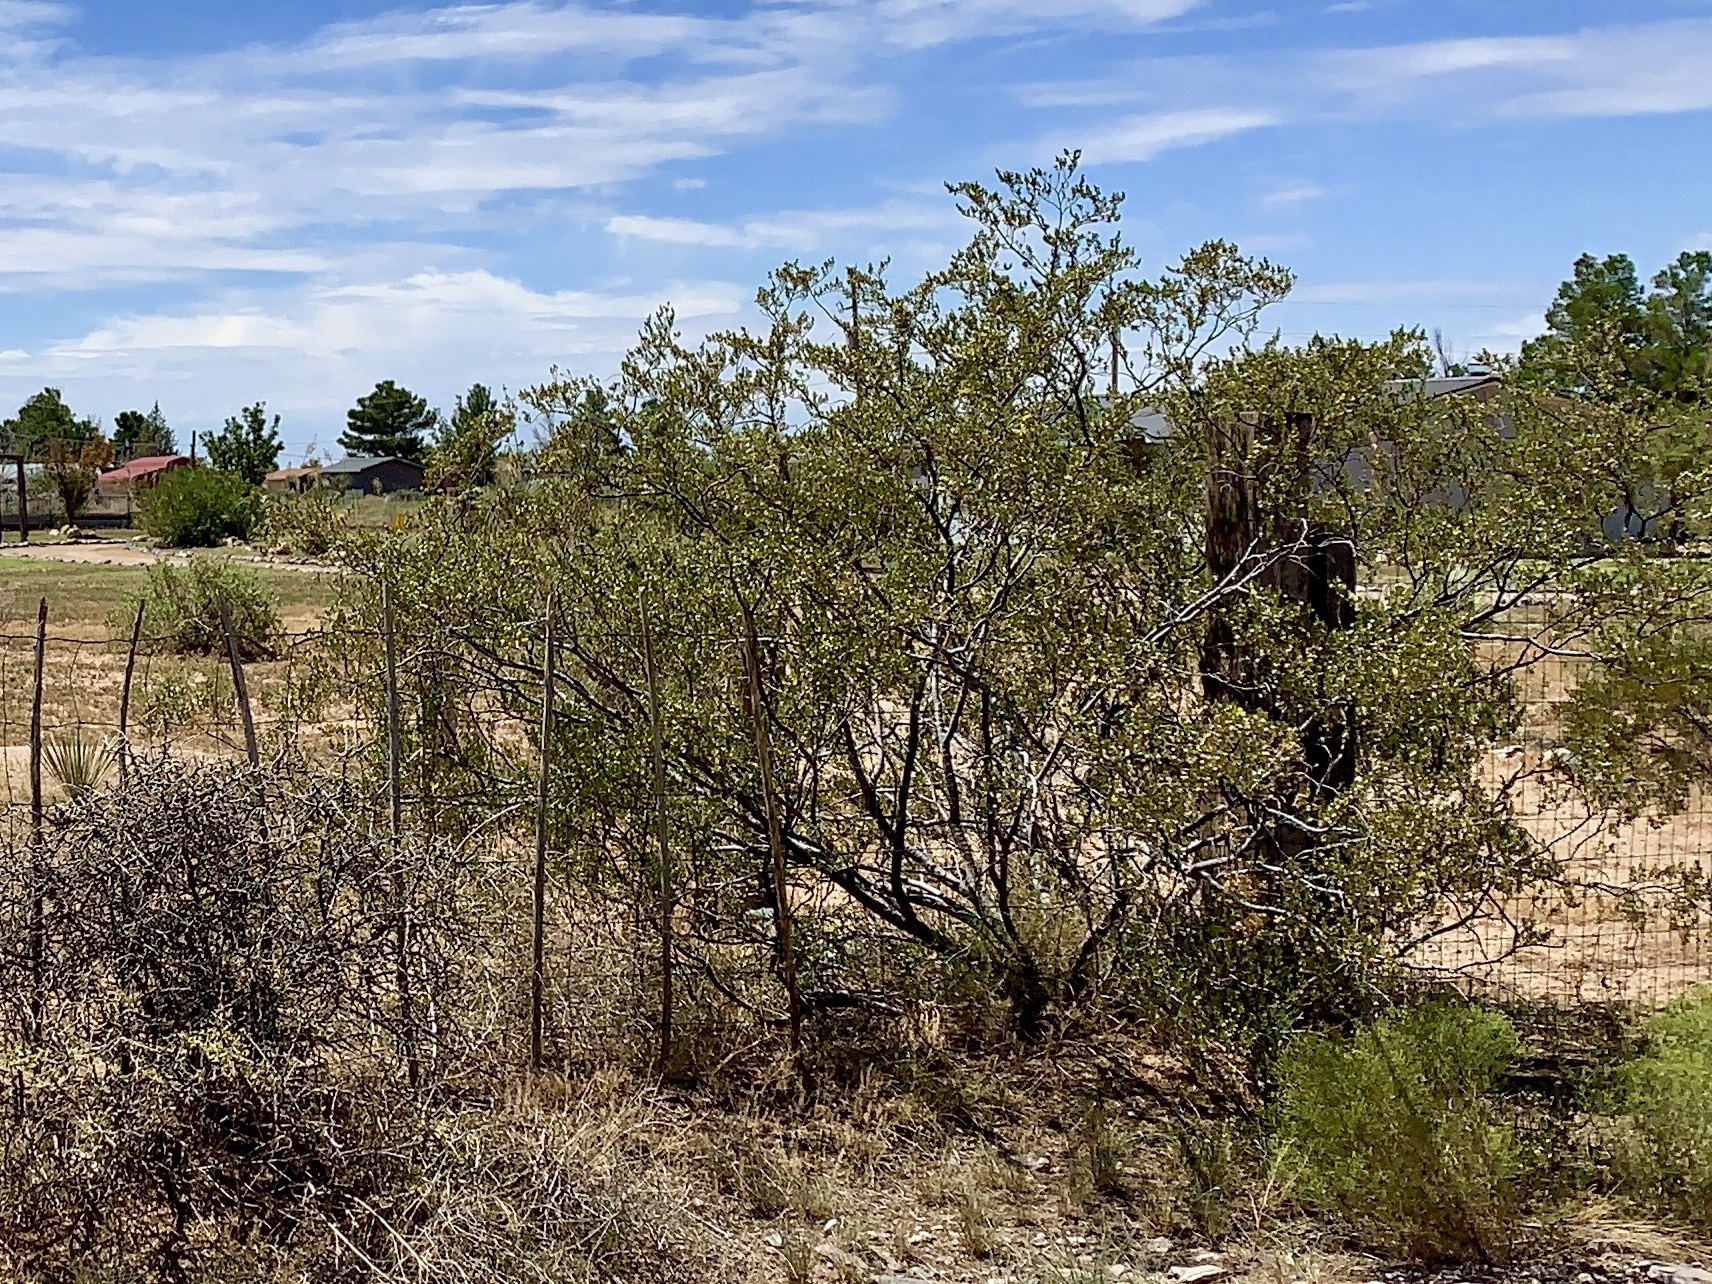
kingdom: Plantae
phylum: Tracheophyta
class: Magnoliopsida
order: Zygophyllales
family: Zygophyllaceae
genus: Larrea
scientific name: Larrea tridentata
